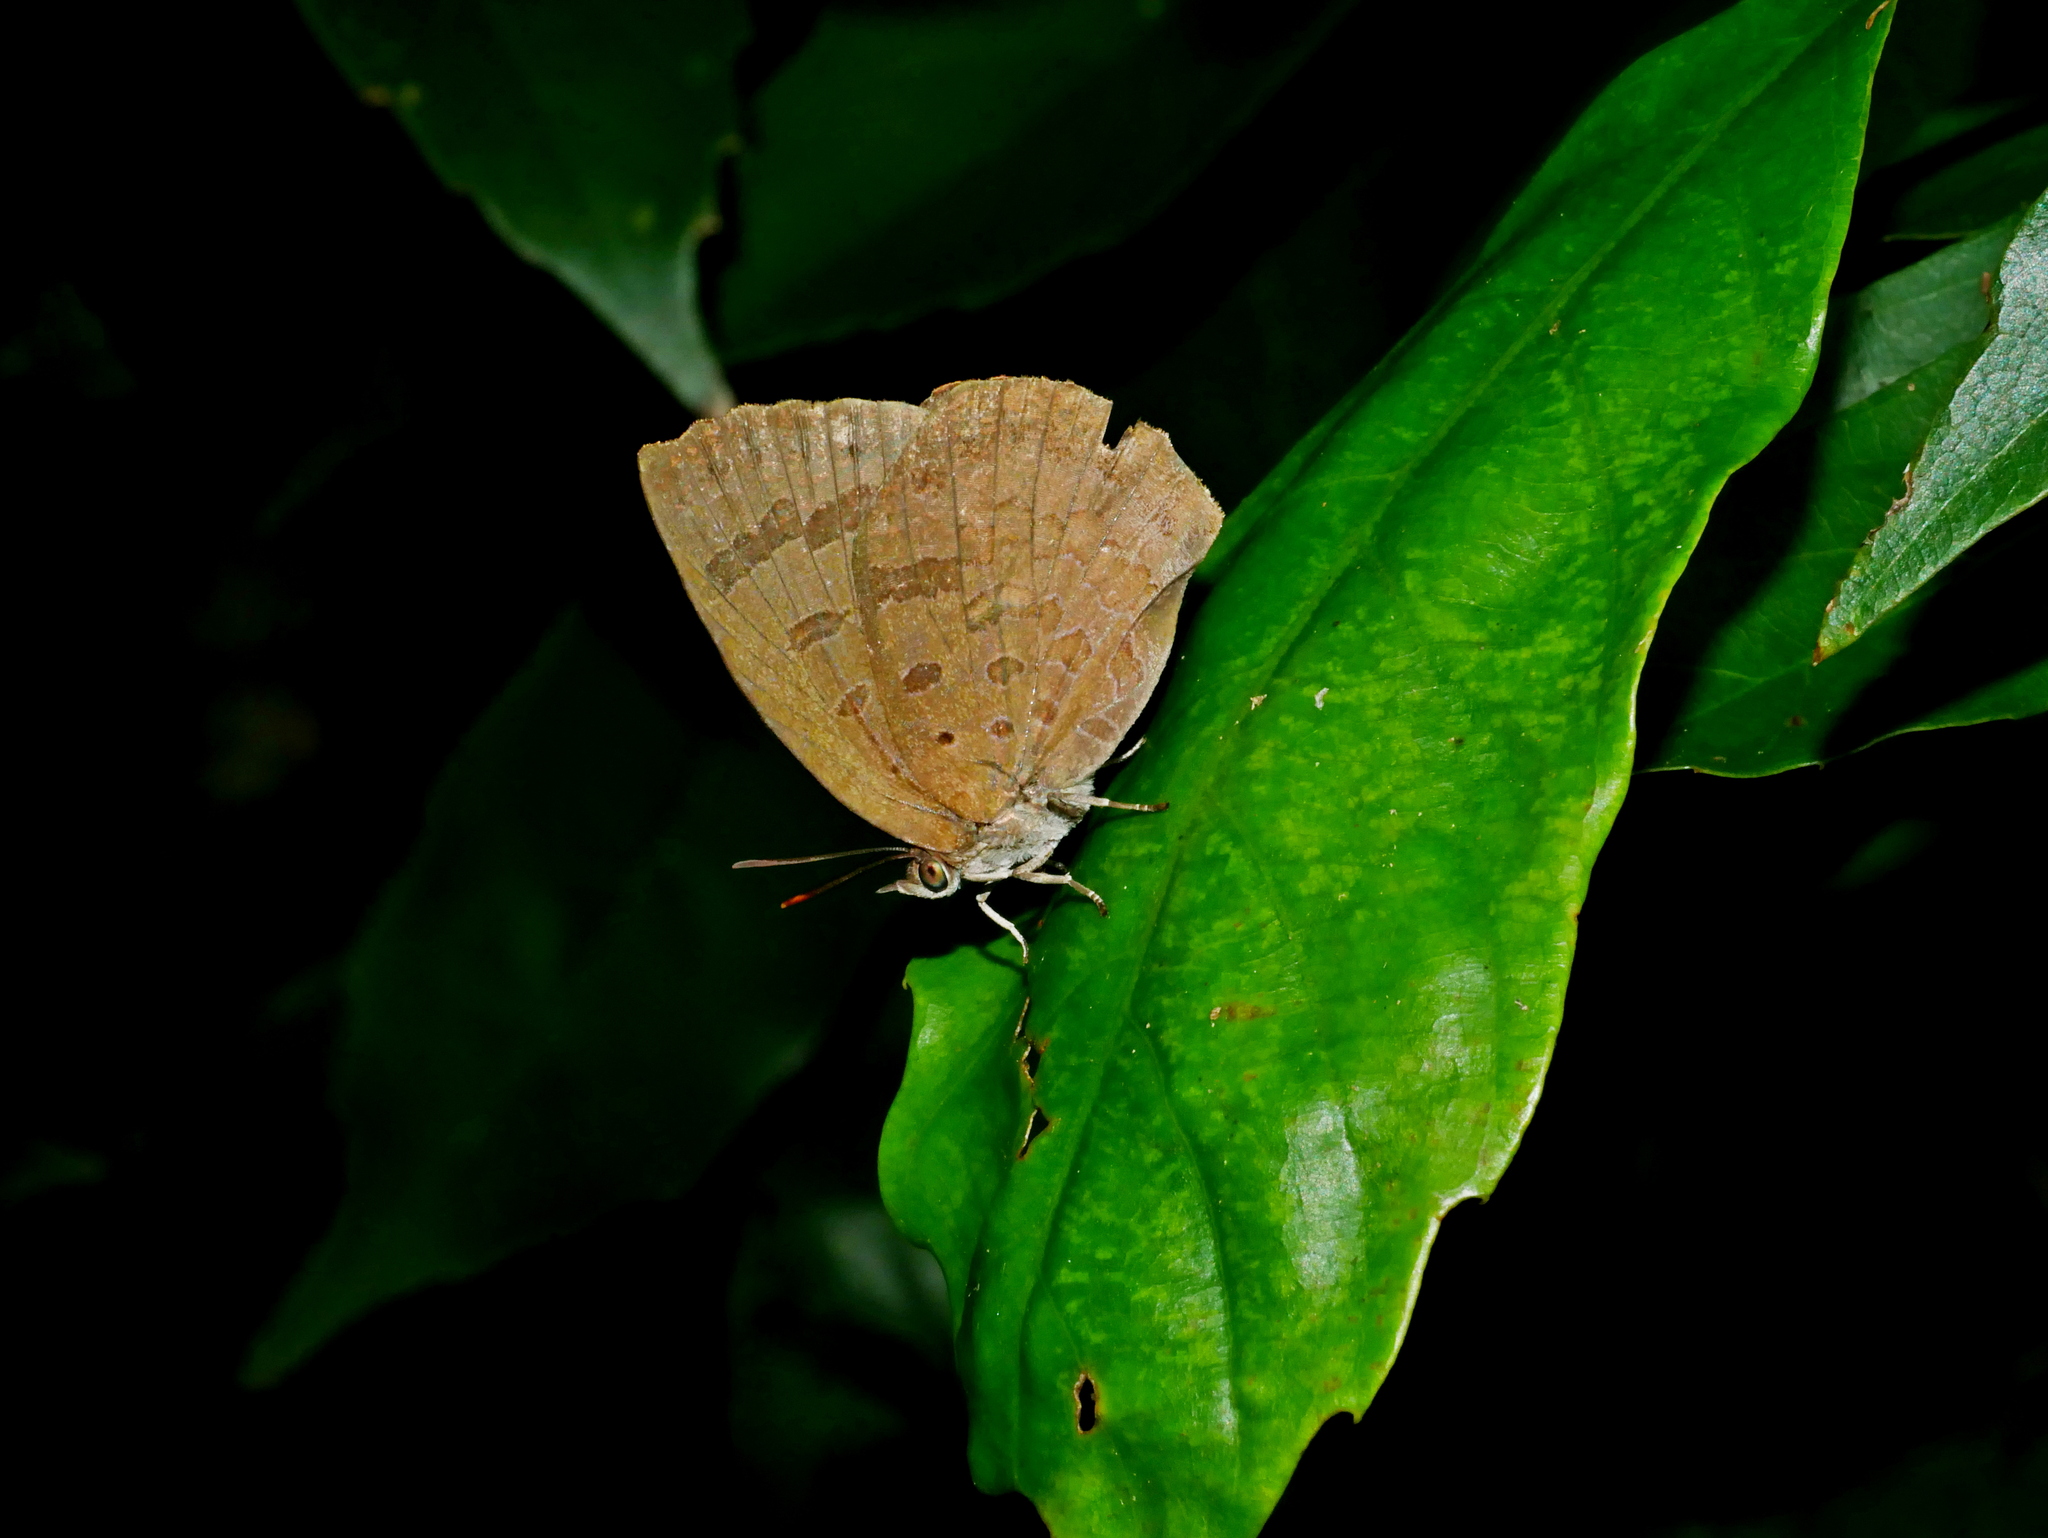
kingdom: Animalia
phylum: Arthropoda
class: Insecta
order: Lepidoptera
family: Lycaenidae
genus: Arhopala
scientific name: Arhopala japonica
